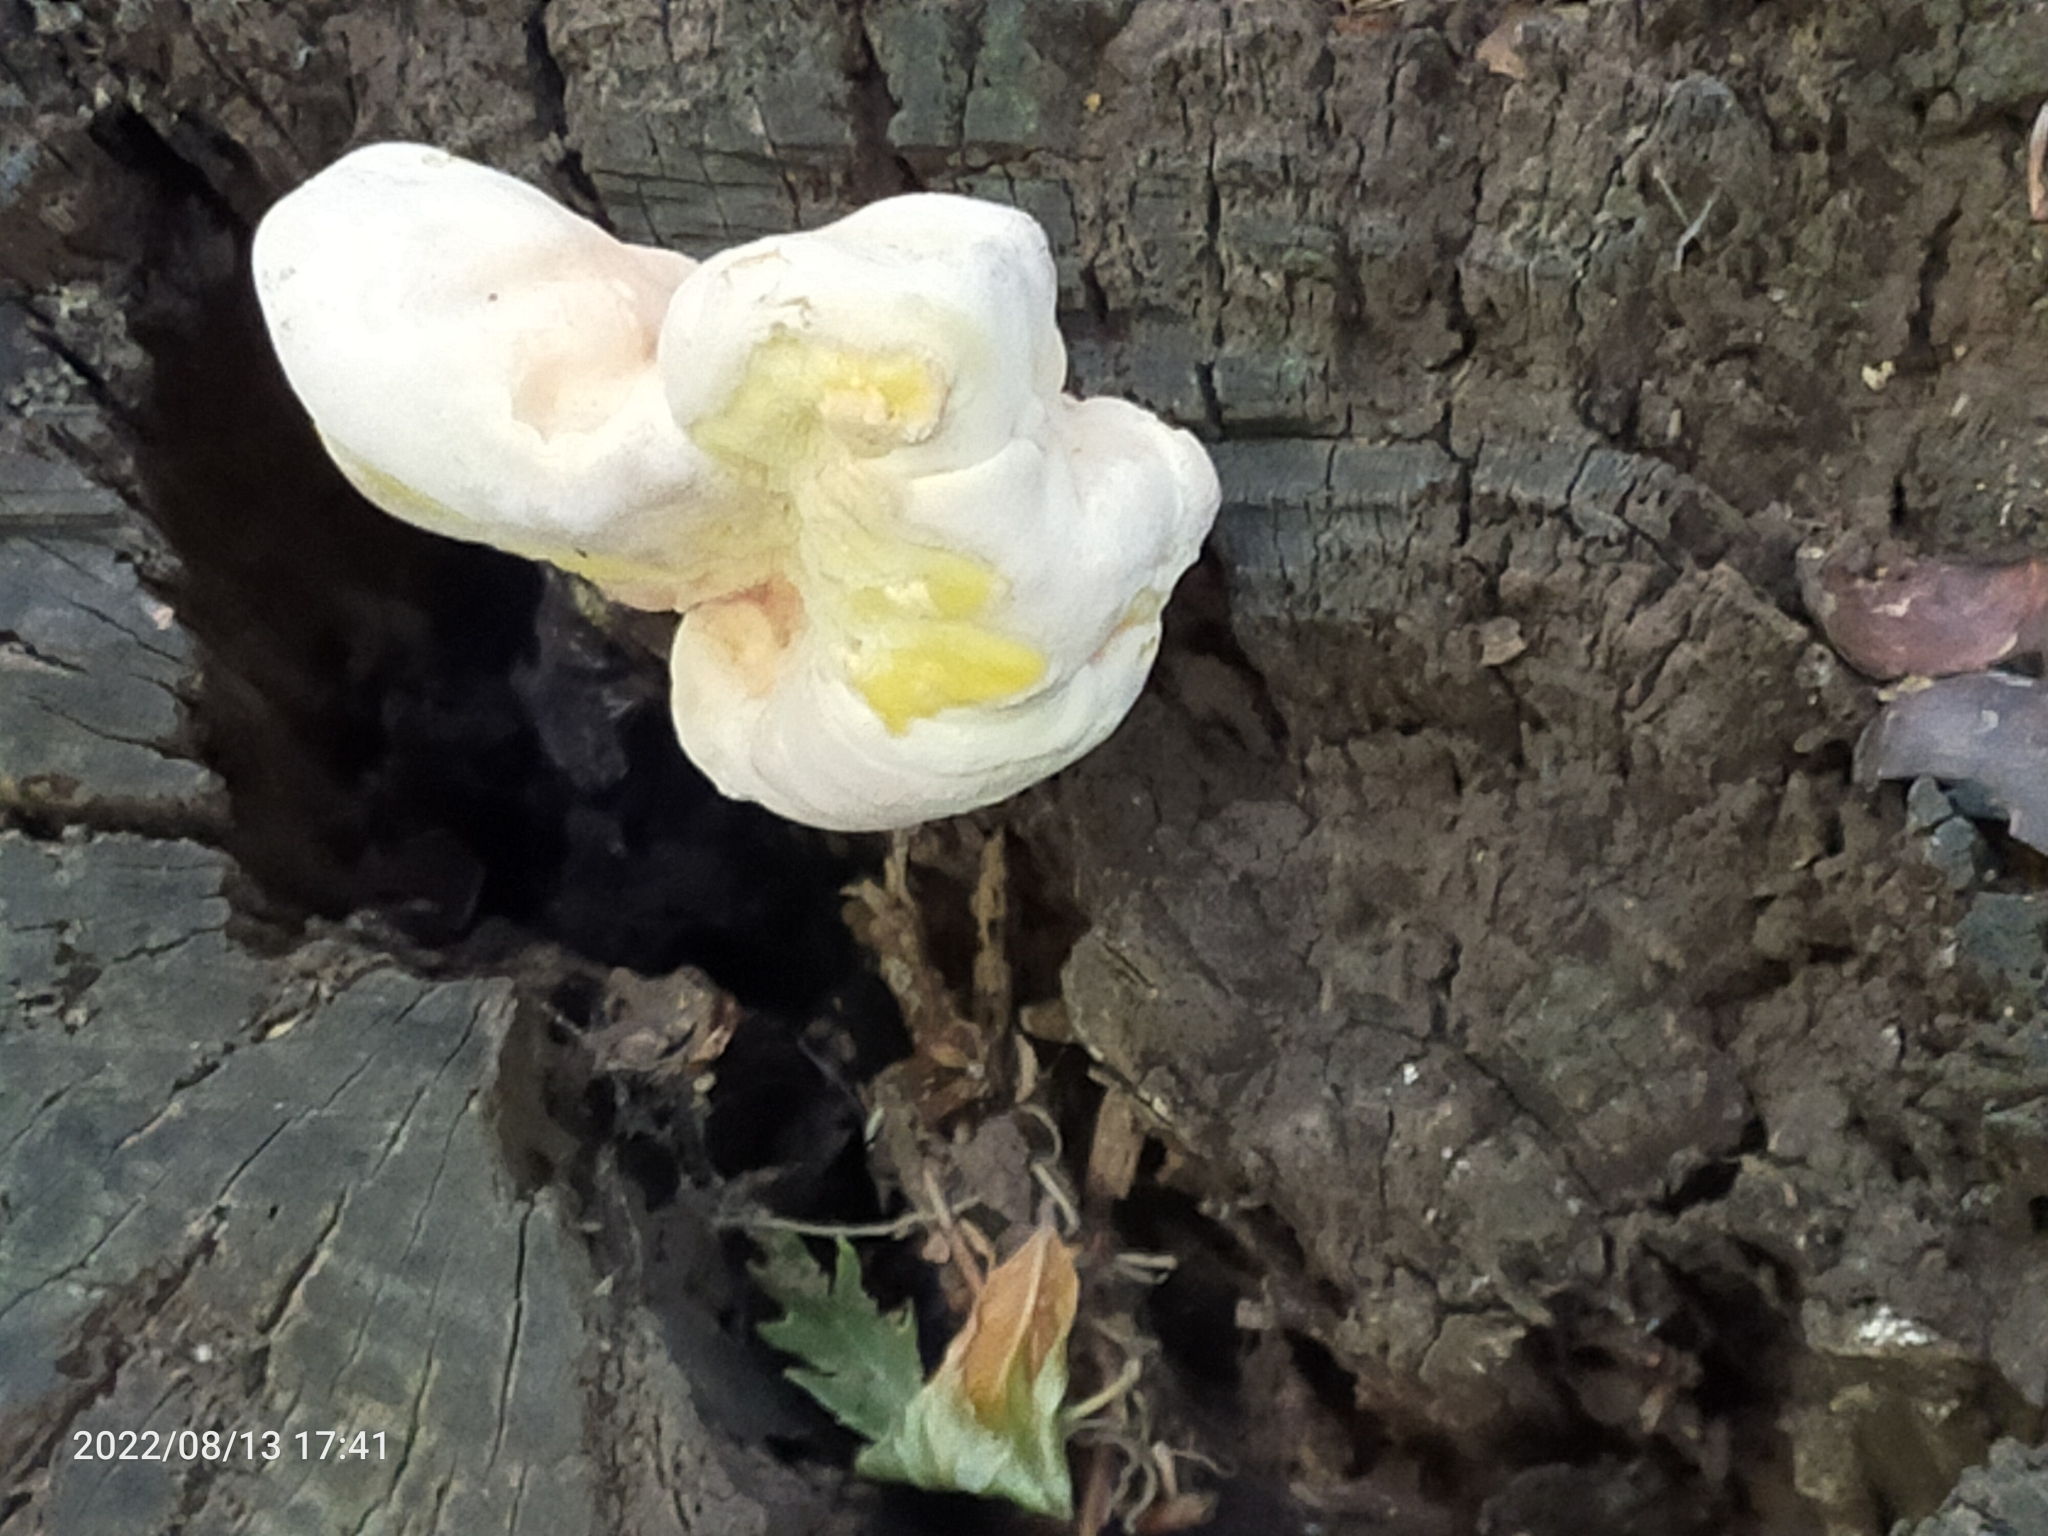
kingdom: Fungi
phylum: Basidiomycota
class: Agaricomycetes
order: Polyporales
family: Laetiporaceae
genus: Laetiporus
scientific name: Laetiporus sulphureus
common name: Chicken of the woods
